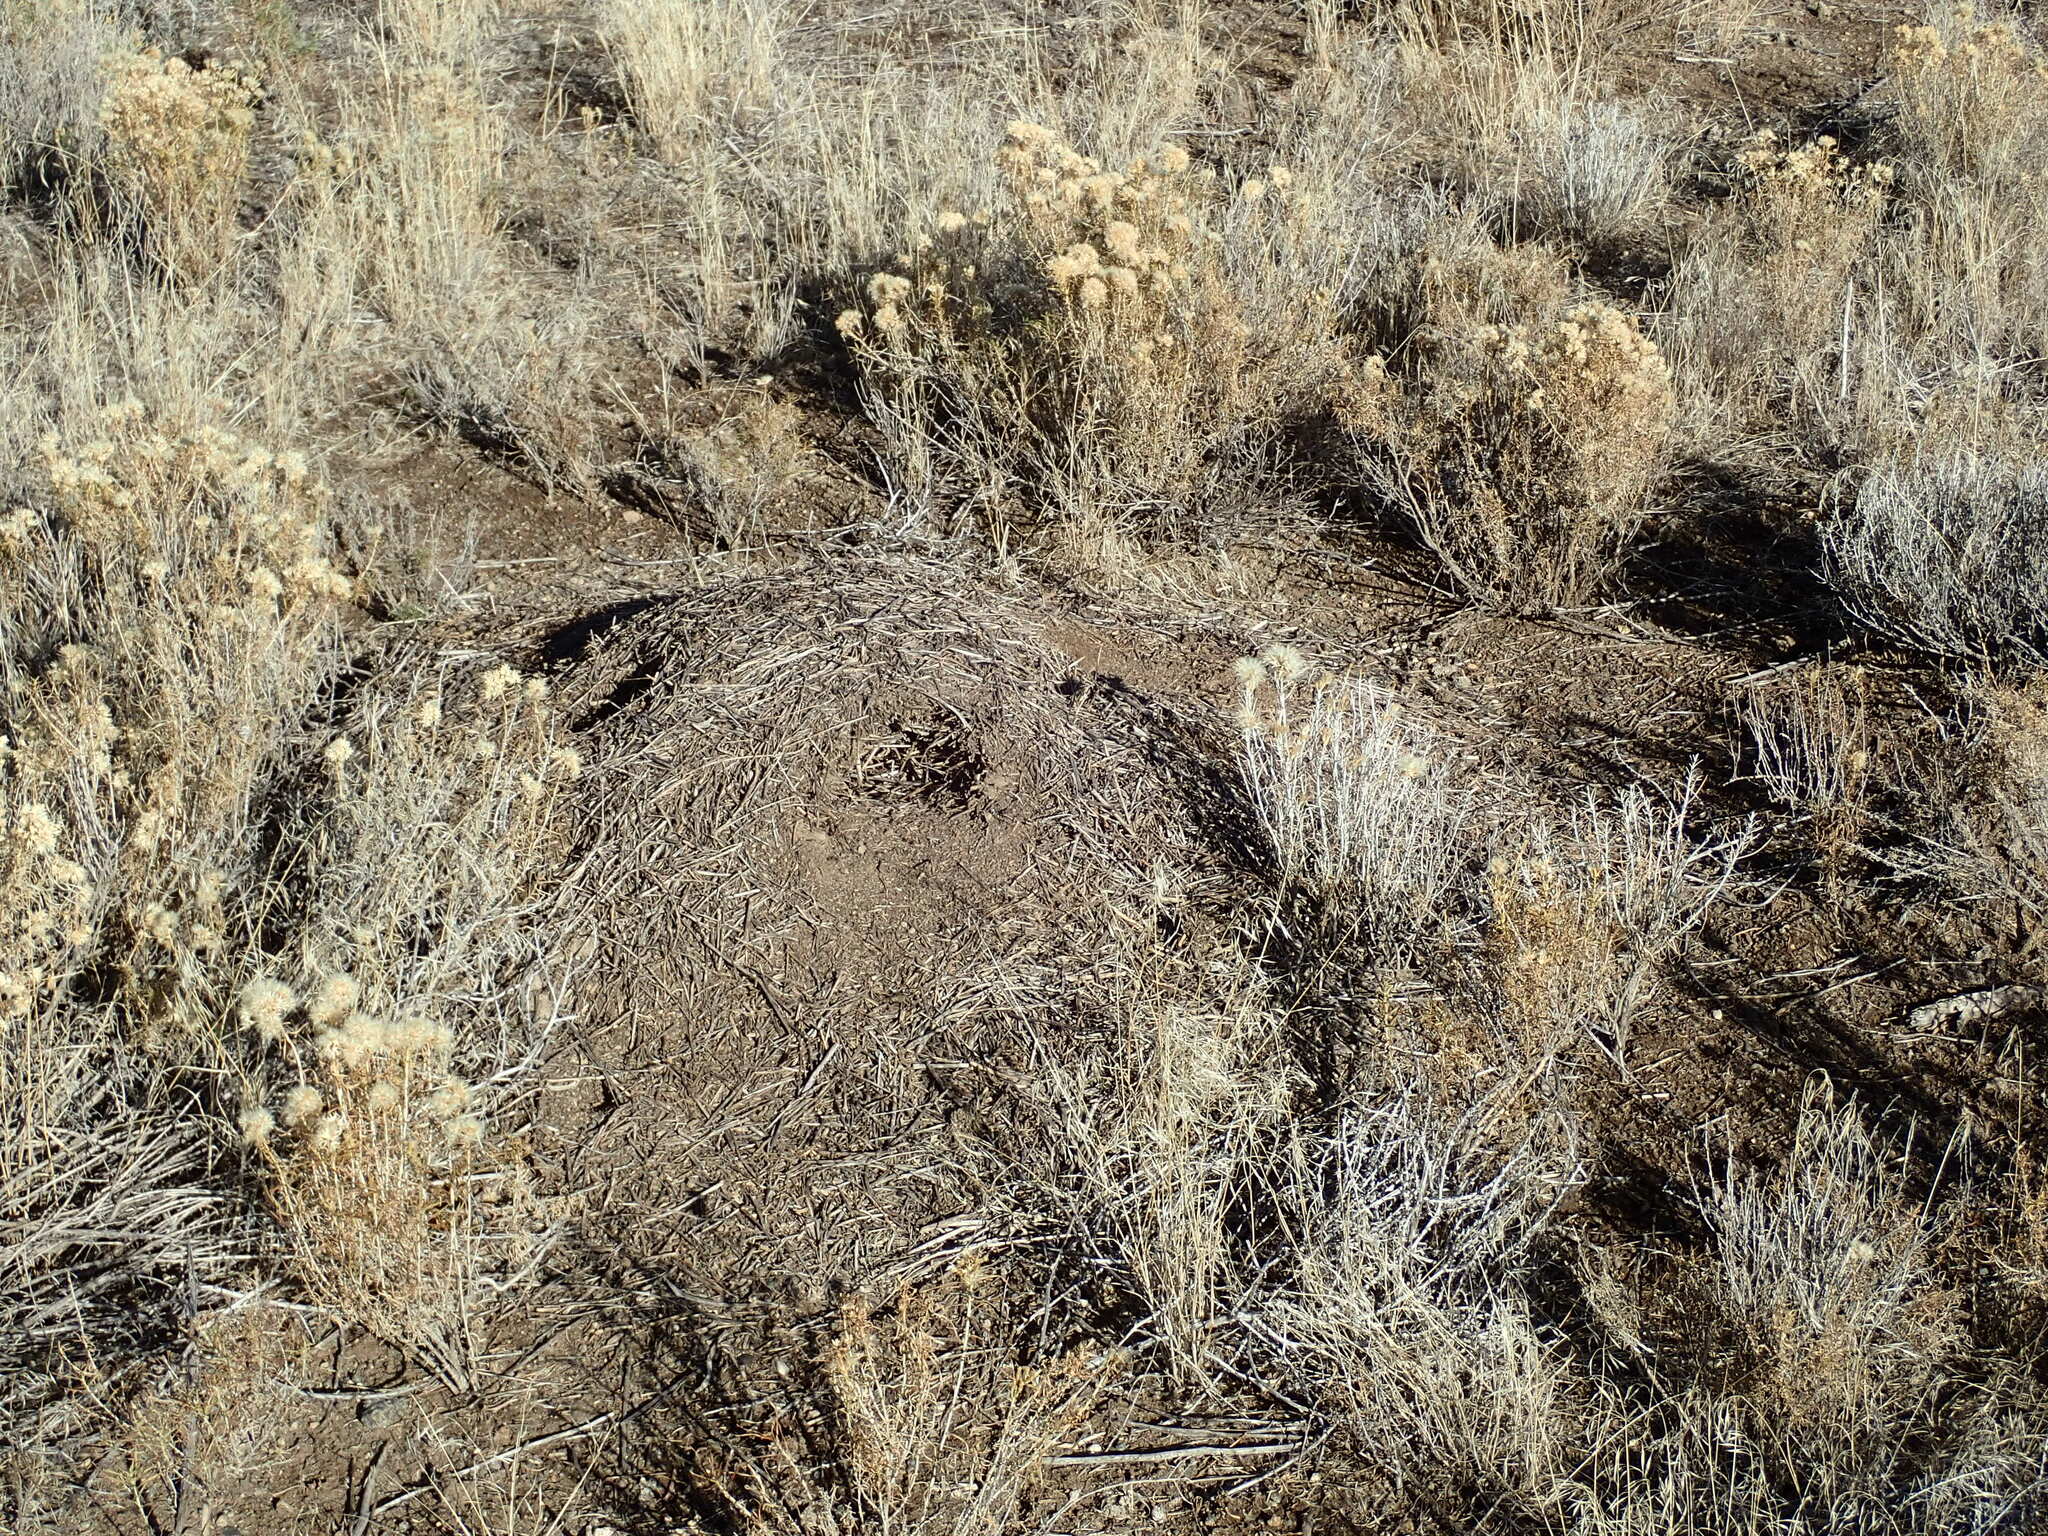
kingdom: Animalia
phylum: Arthropoda
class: Insecta
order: Hymenoptera
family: Formicidae
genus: Formica
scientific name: Formica obscuripes
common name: Western thatching ant
